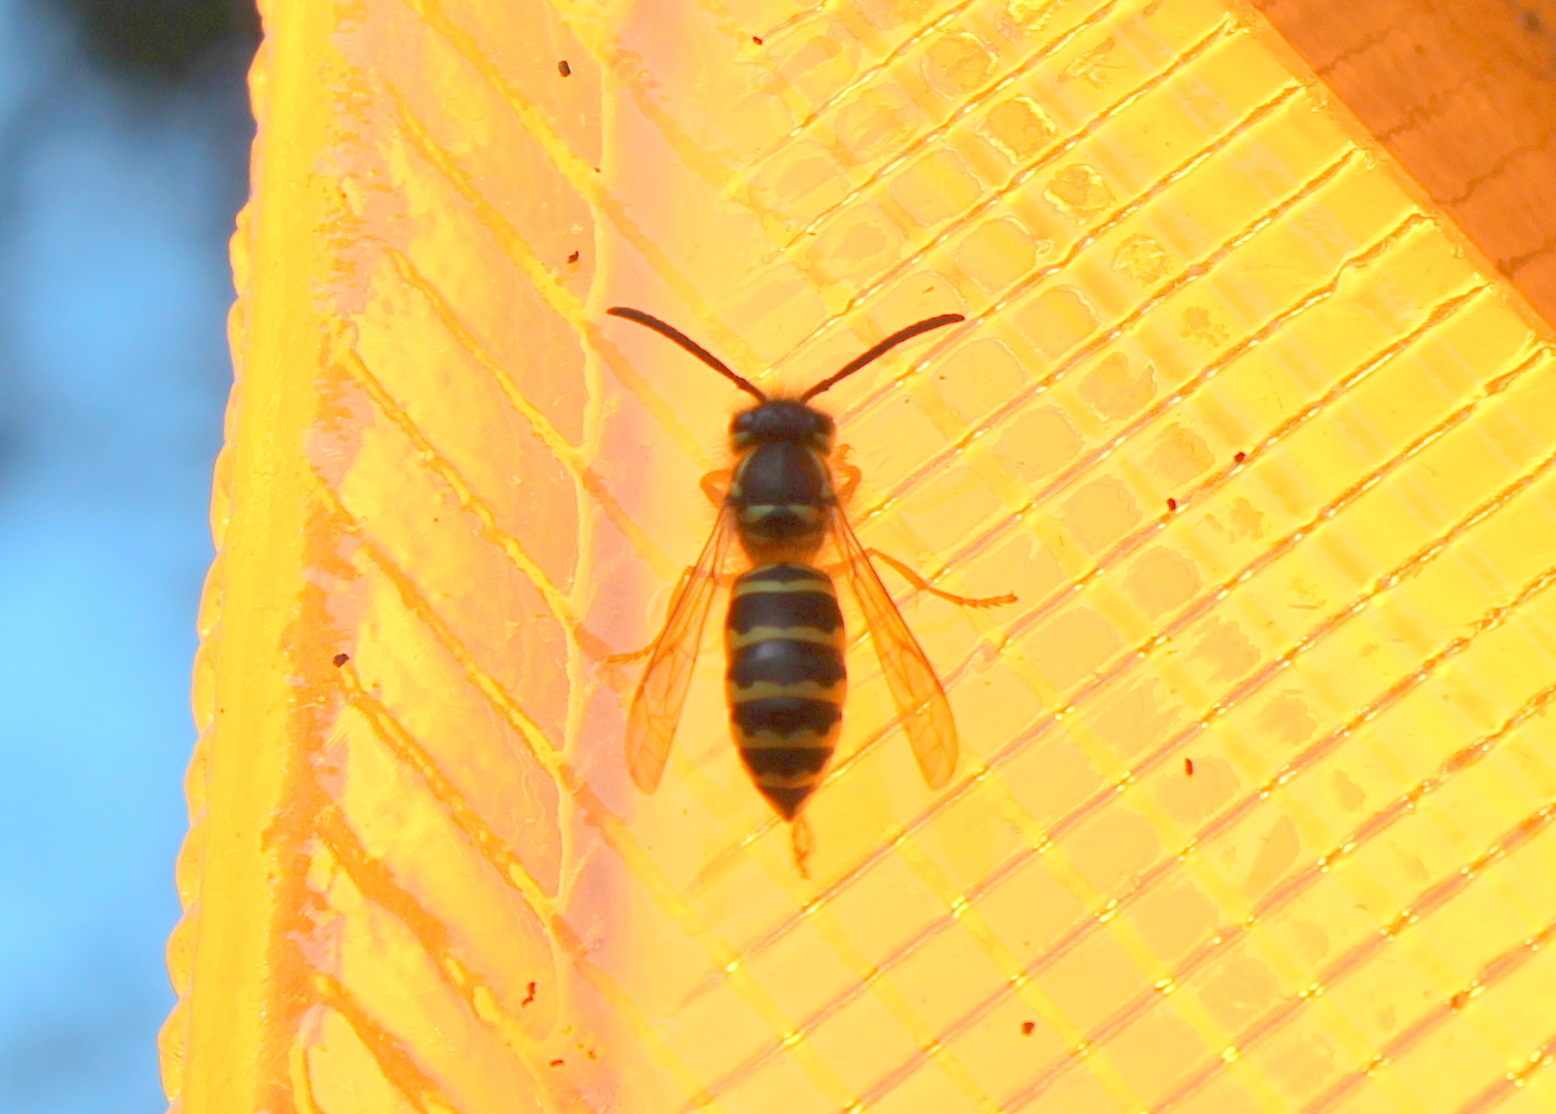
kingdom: Animalia
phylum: Arthropoda
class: Insecta
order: Hymenoptera
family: Vespidae
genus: Vespula
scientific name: Vespula maculifrons
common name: Eastern yellowjacket
